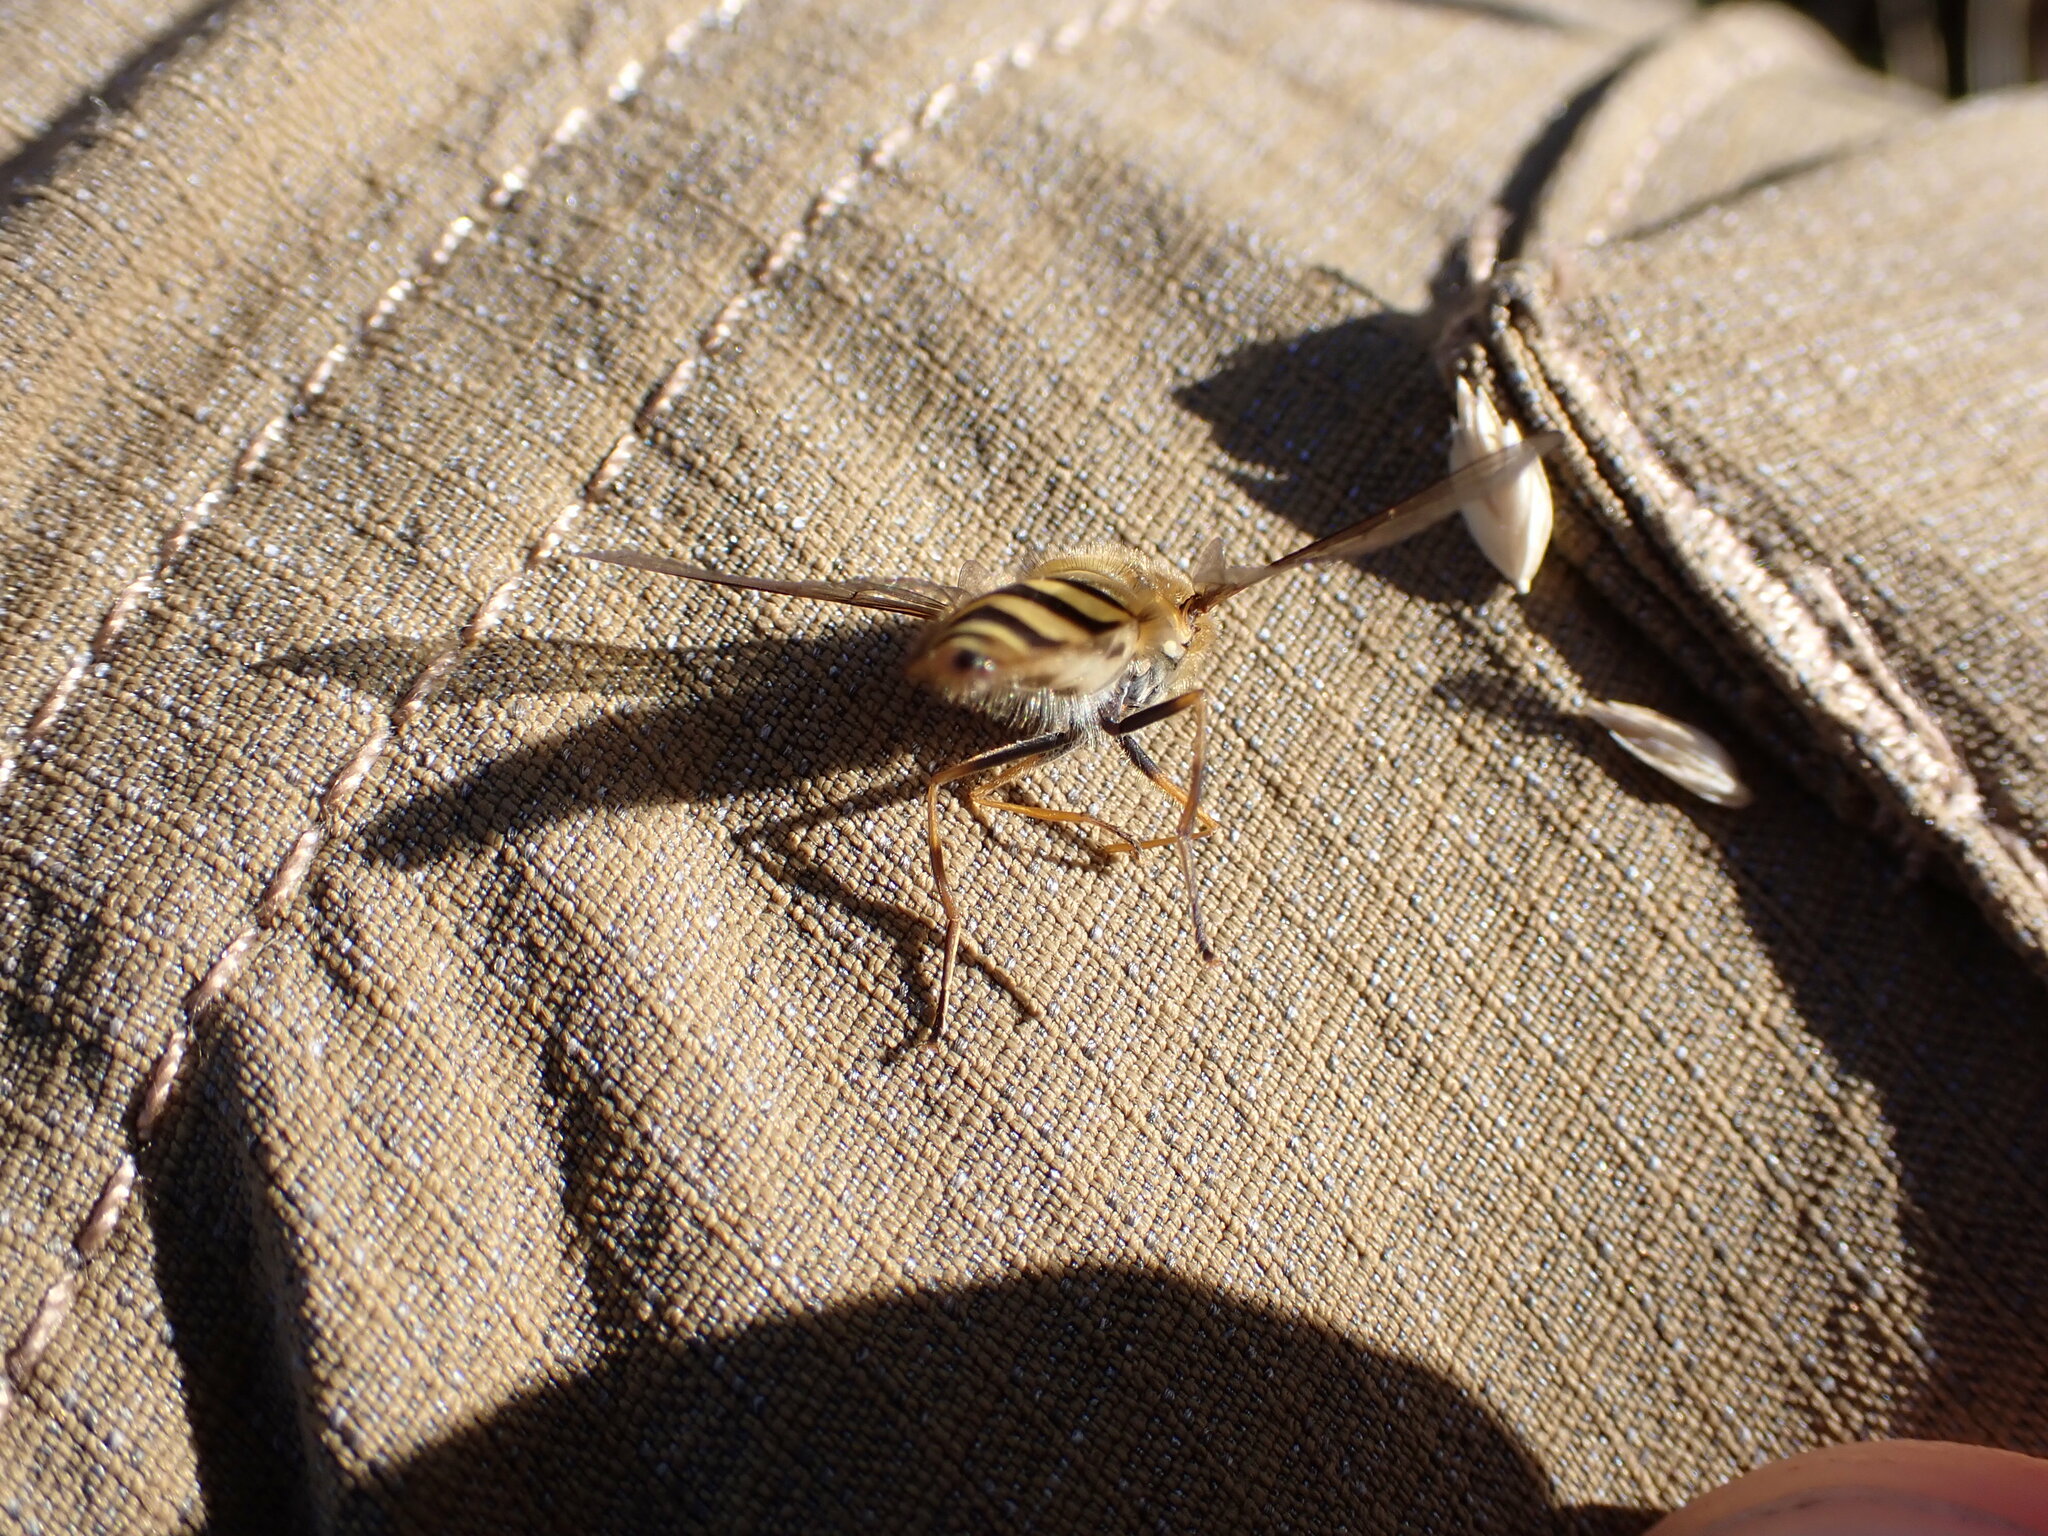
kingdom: Animalia
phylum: Arthropoda
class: Insecta
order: Diptera
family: Syrphidae
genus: Syrphus
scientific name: Syrphus
